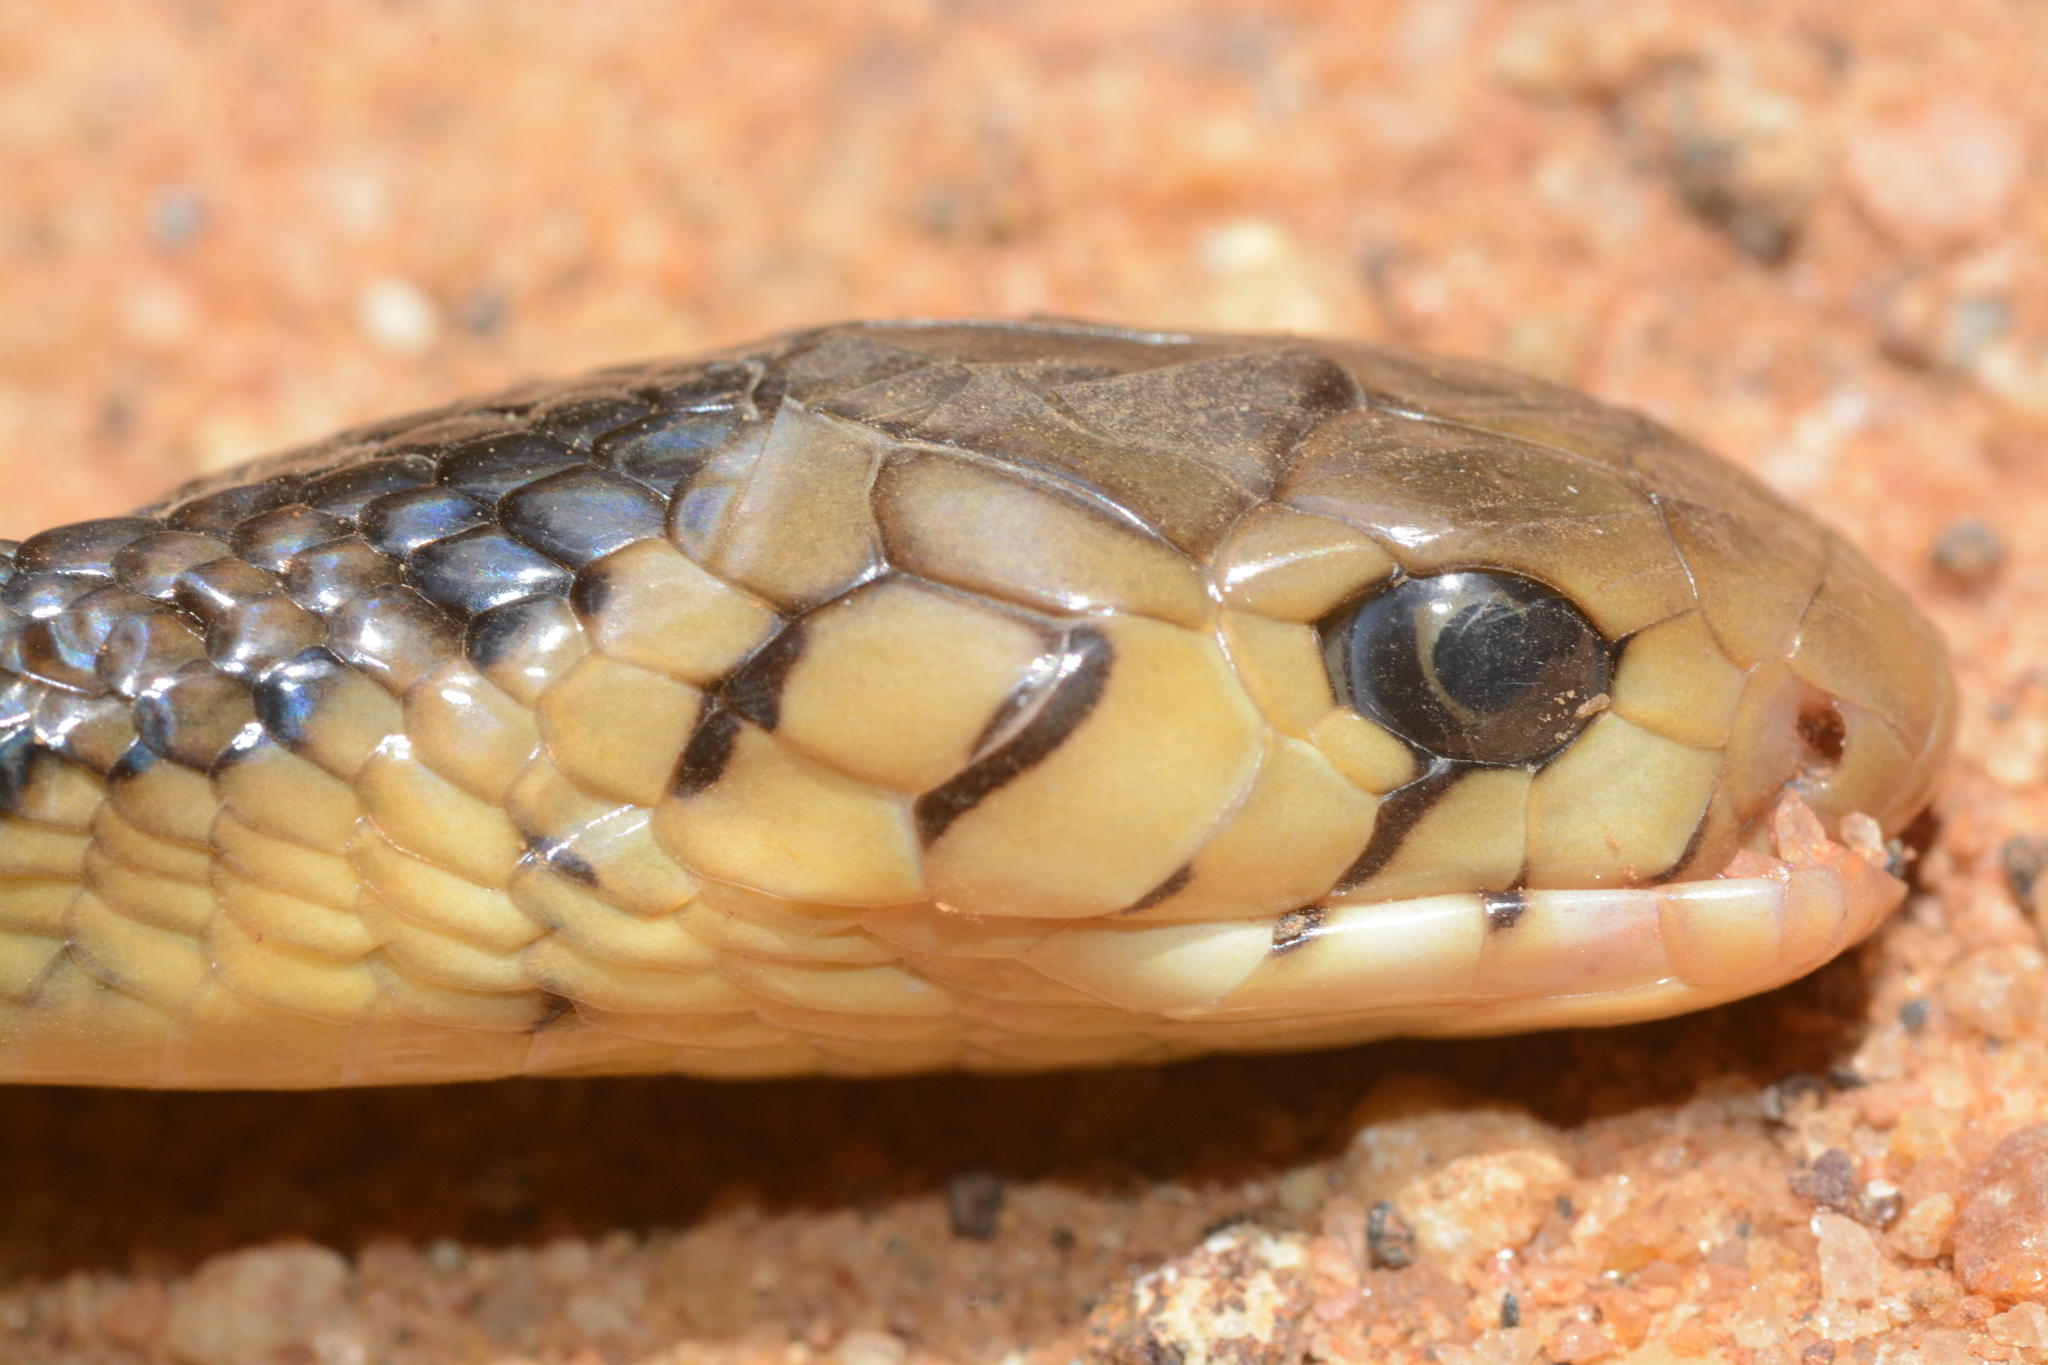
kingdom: Animalia
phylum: Chordata
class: Squamata
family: Elapidae
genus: Naja
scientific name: Naja subfulva
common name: Brown forest cobra
